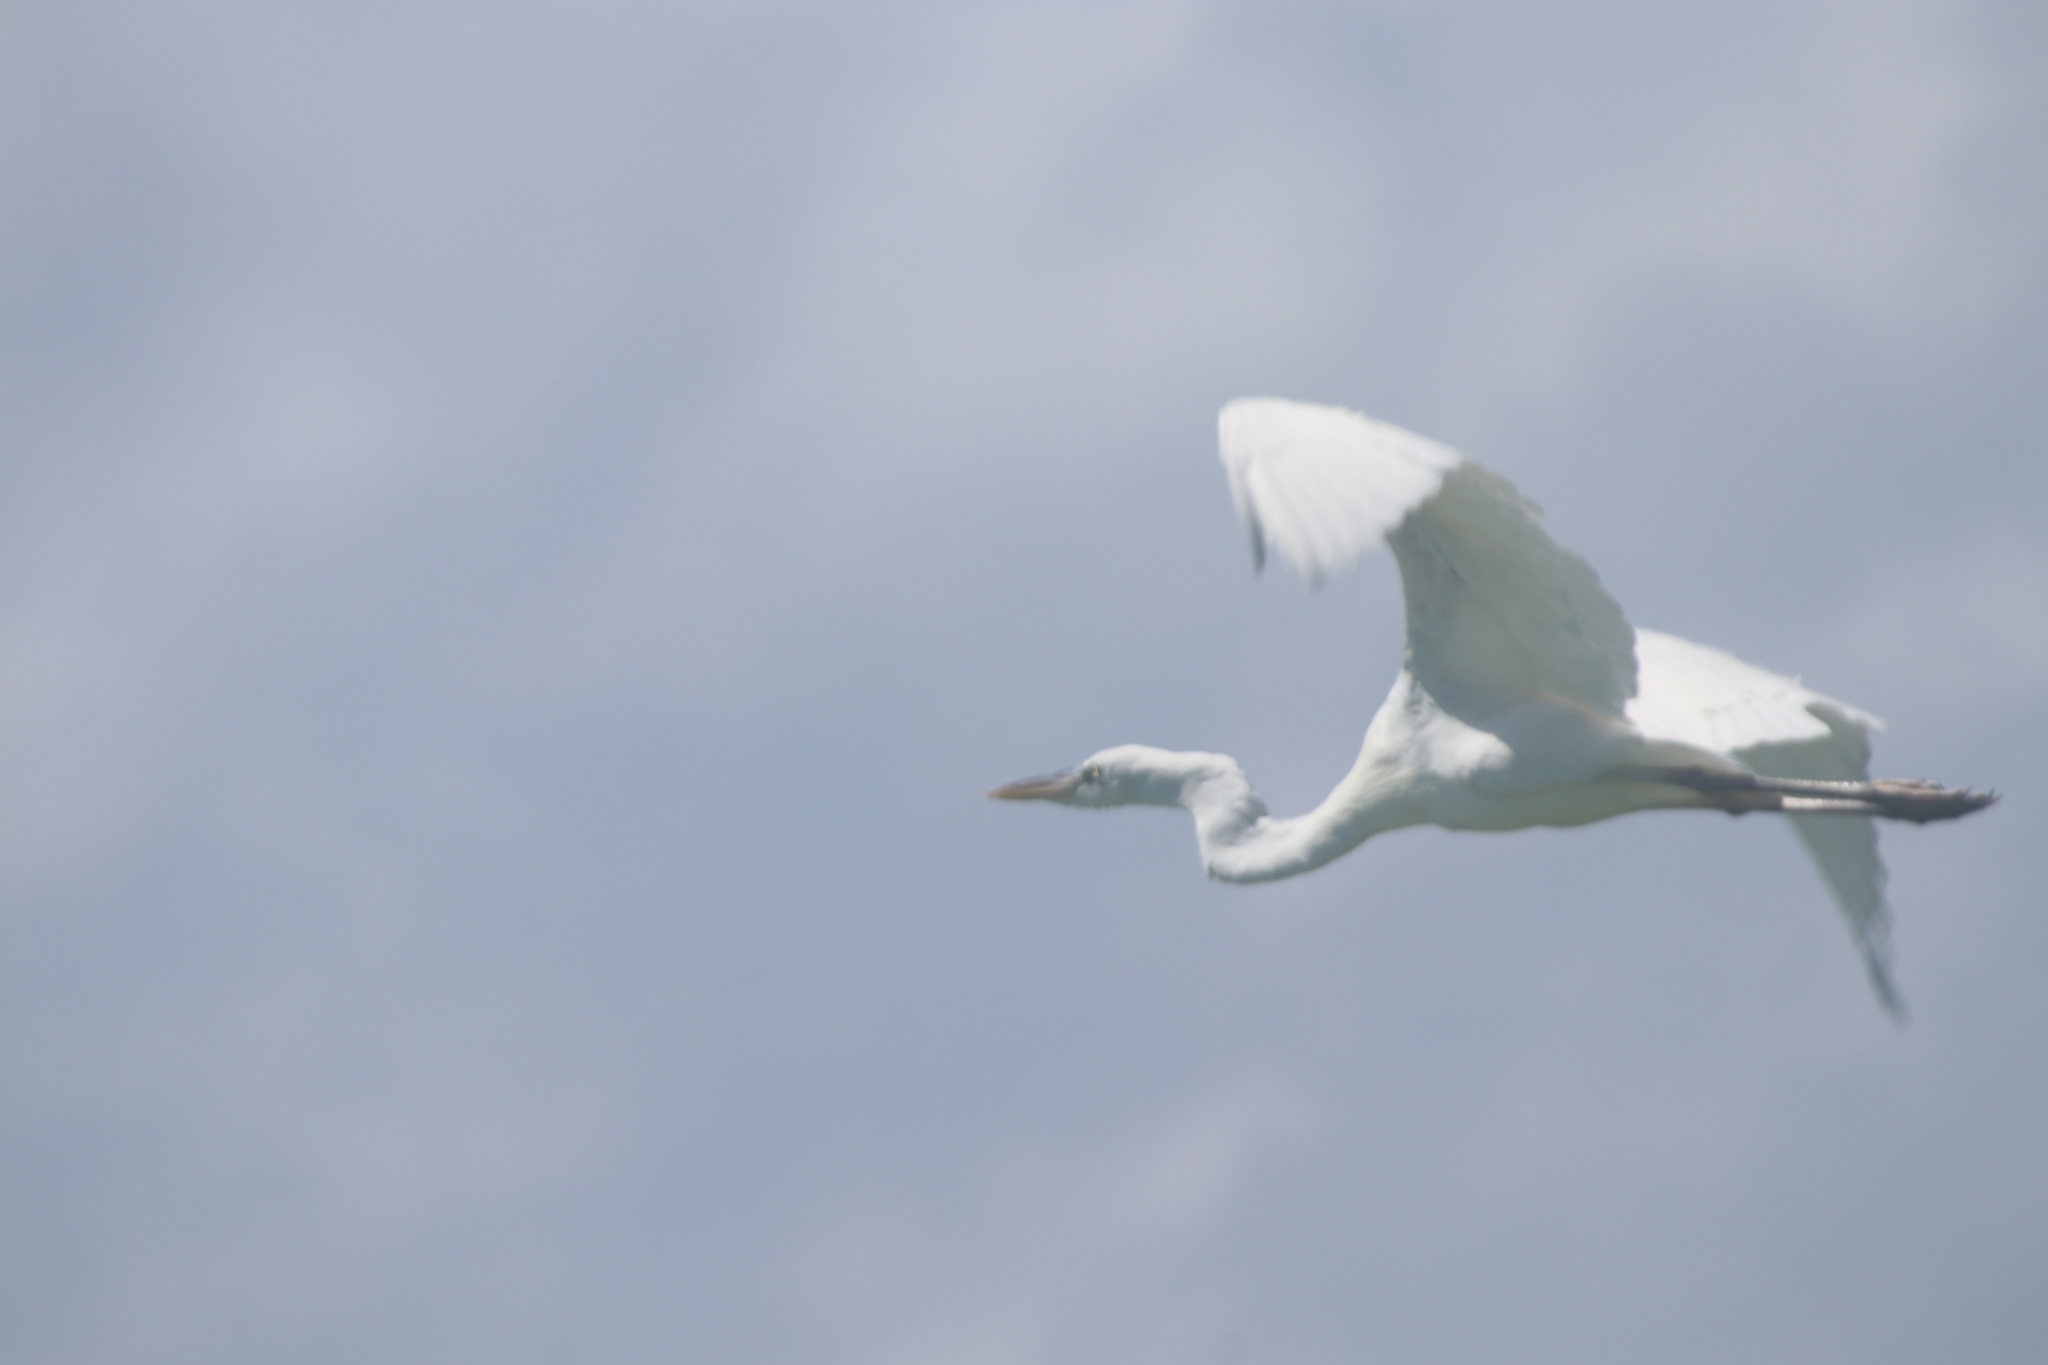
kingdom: Animalia
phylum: Chordata
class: Aves
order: Pelecaniformes
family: Ardeidae
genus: Ardea
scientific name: Ardea herodias
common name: Great blue heron
